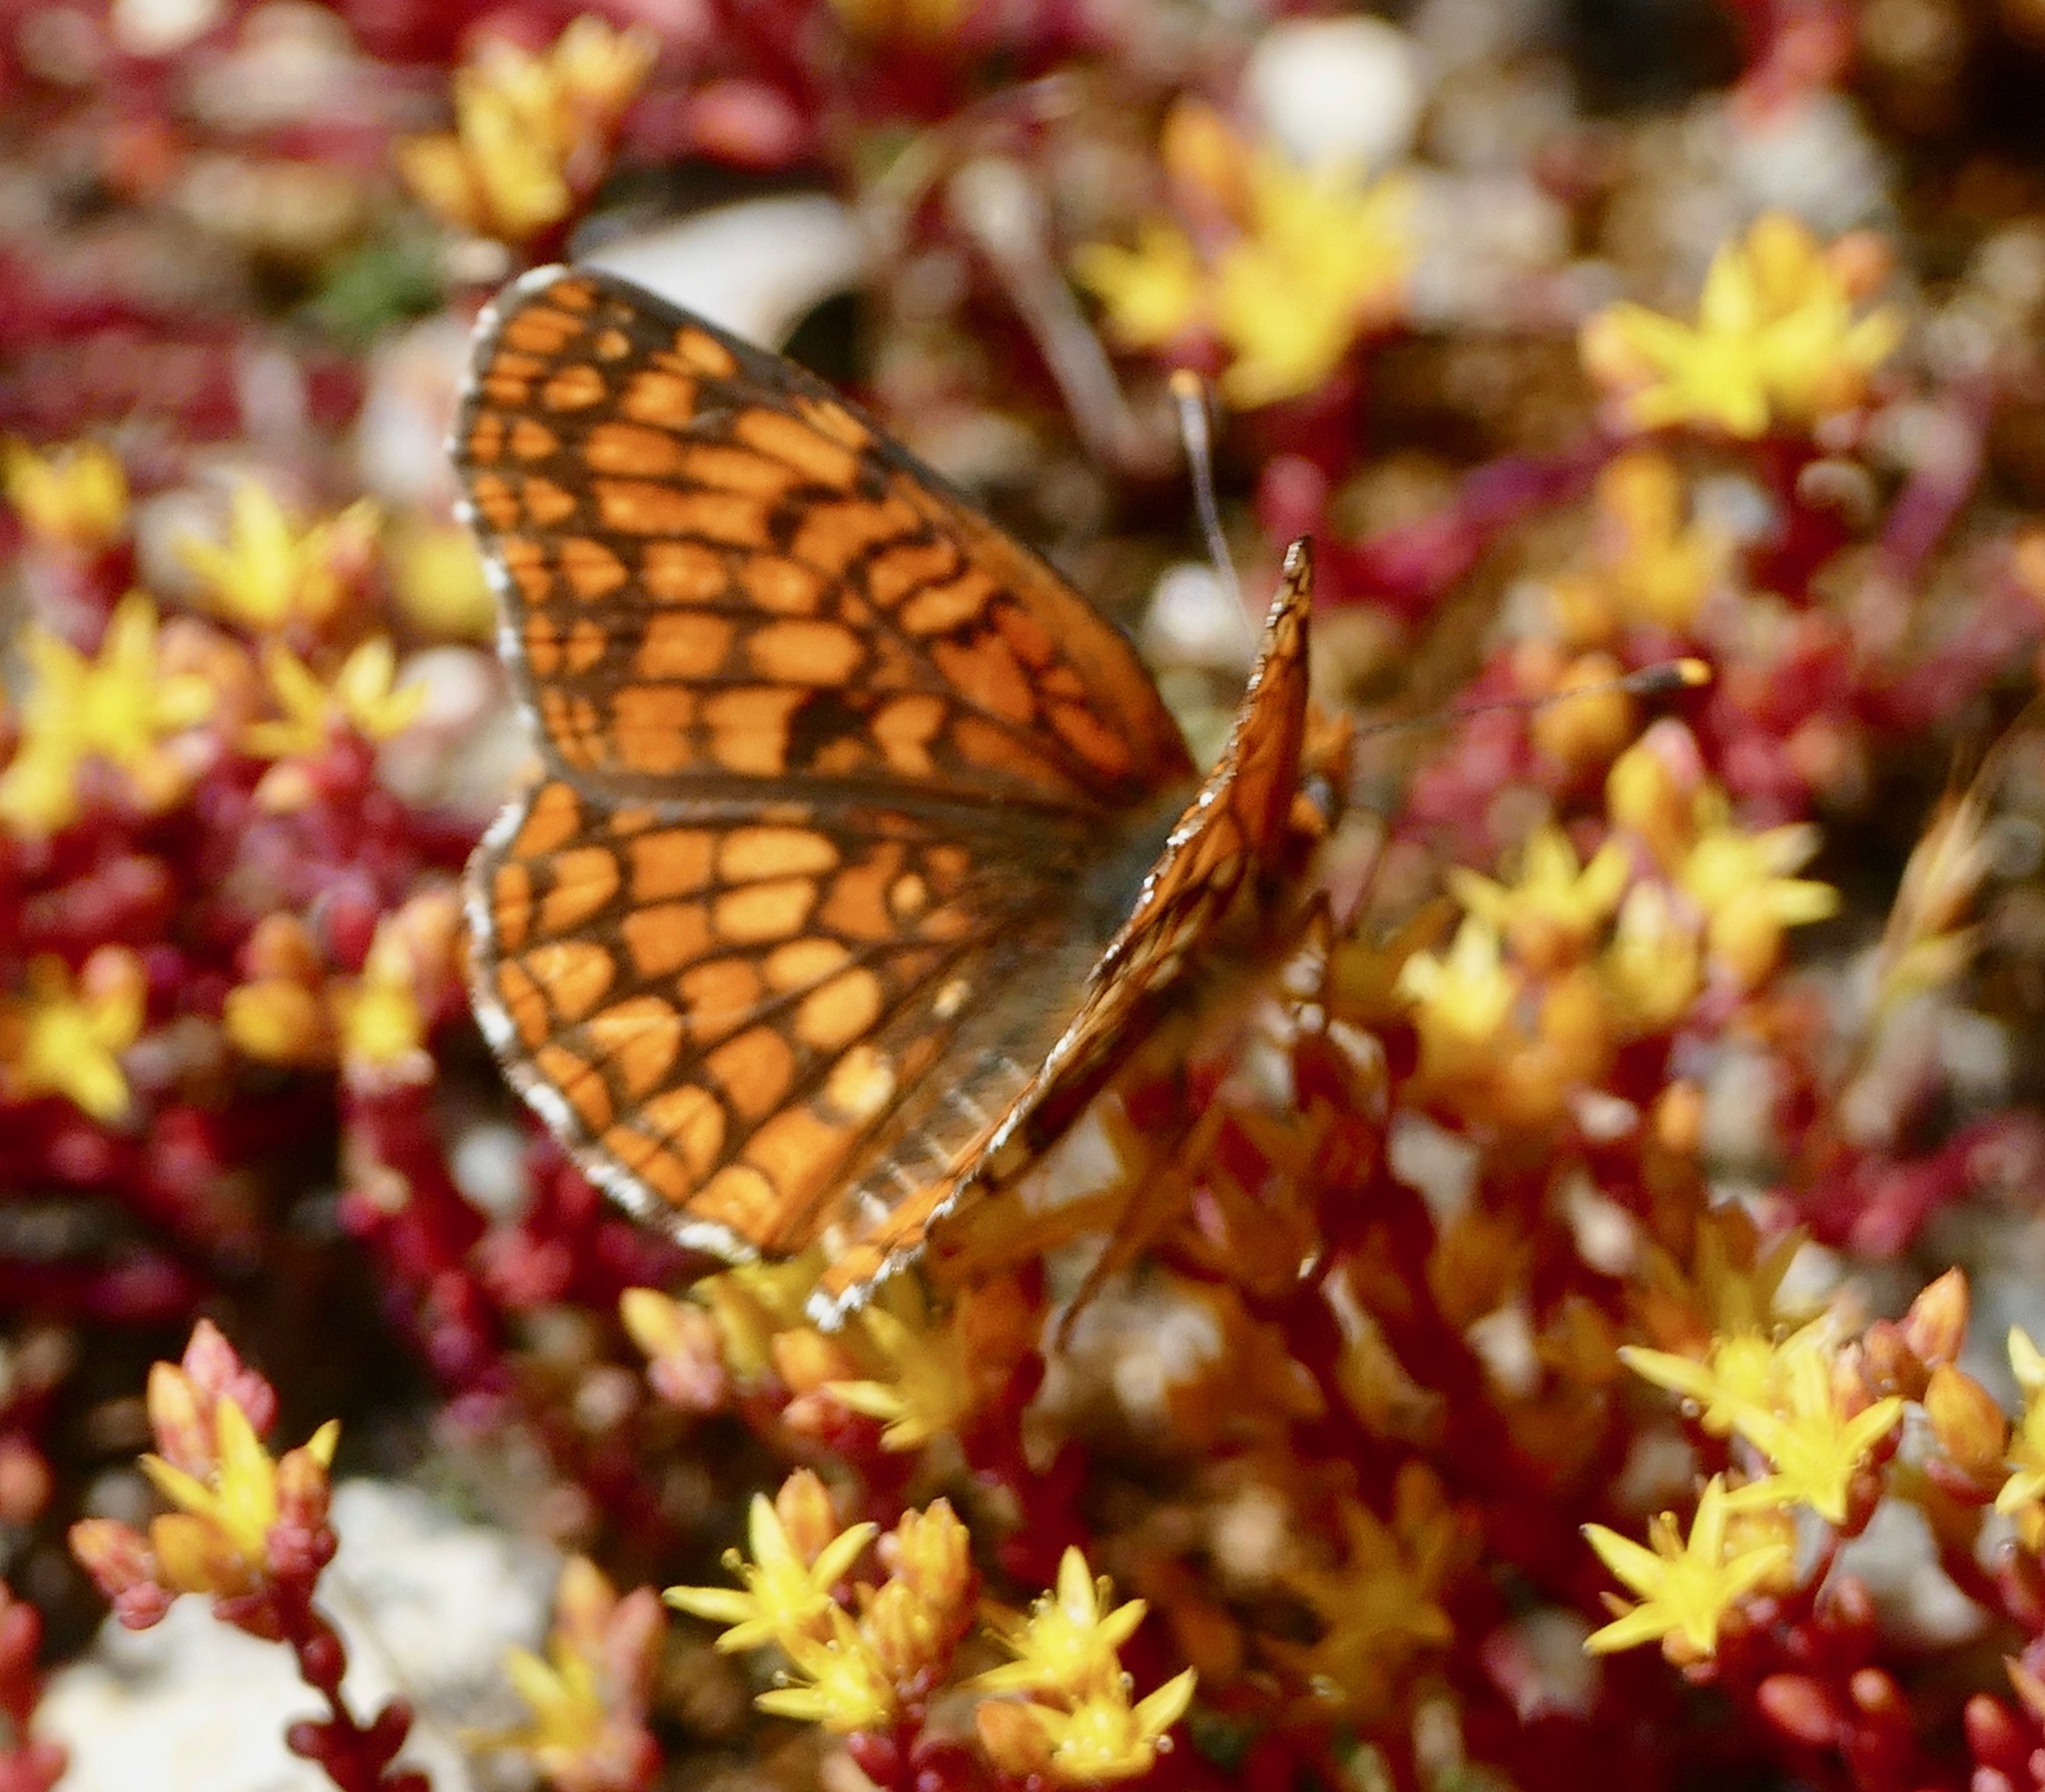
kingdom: Animalia
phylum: Arthropoda
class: Insecta
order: Lepidoptera
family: Nymphalidae
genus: Chlosyne
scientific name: Chlosyne palla
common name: Northern checkerspot
